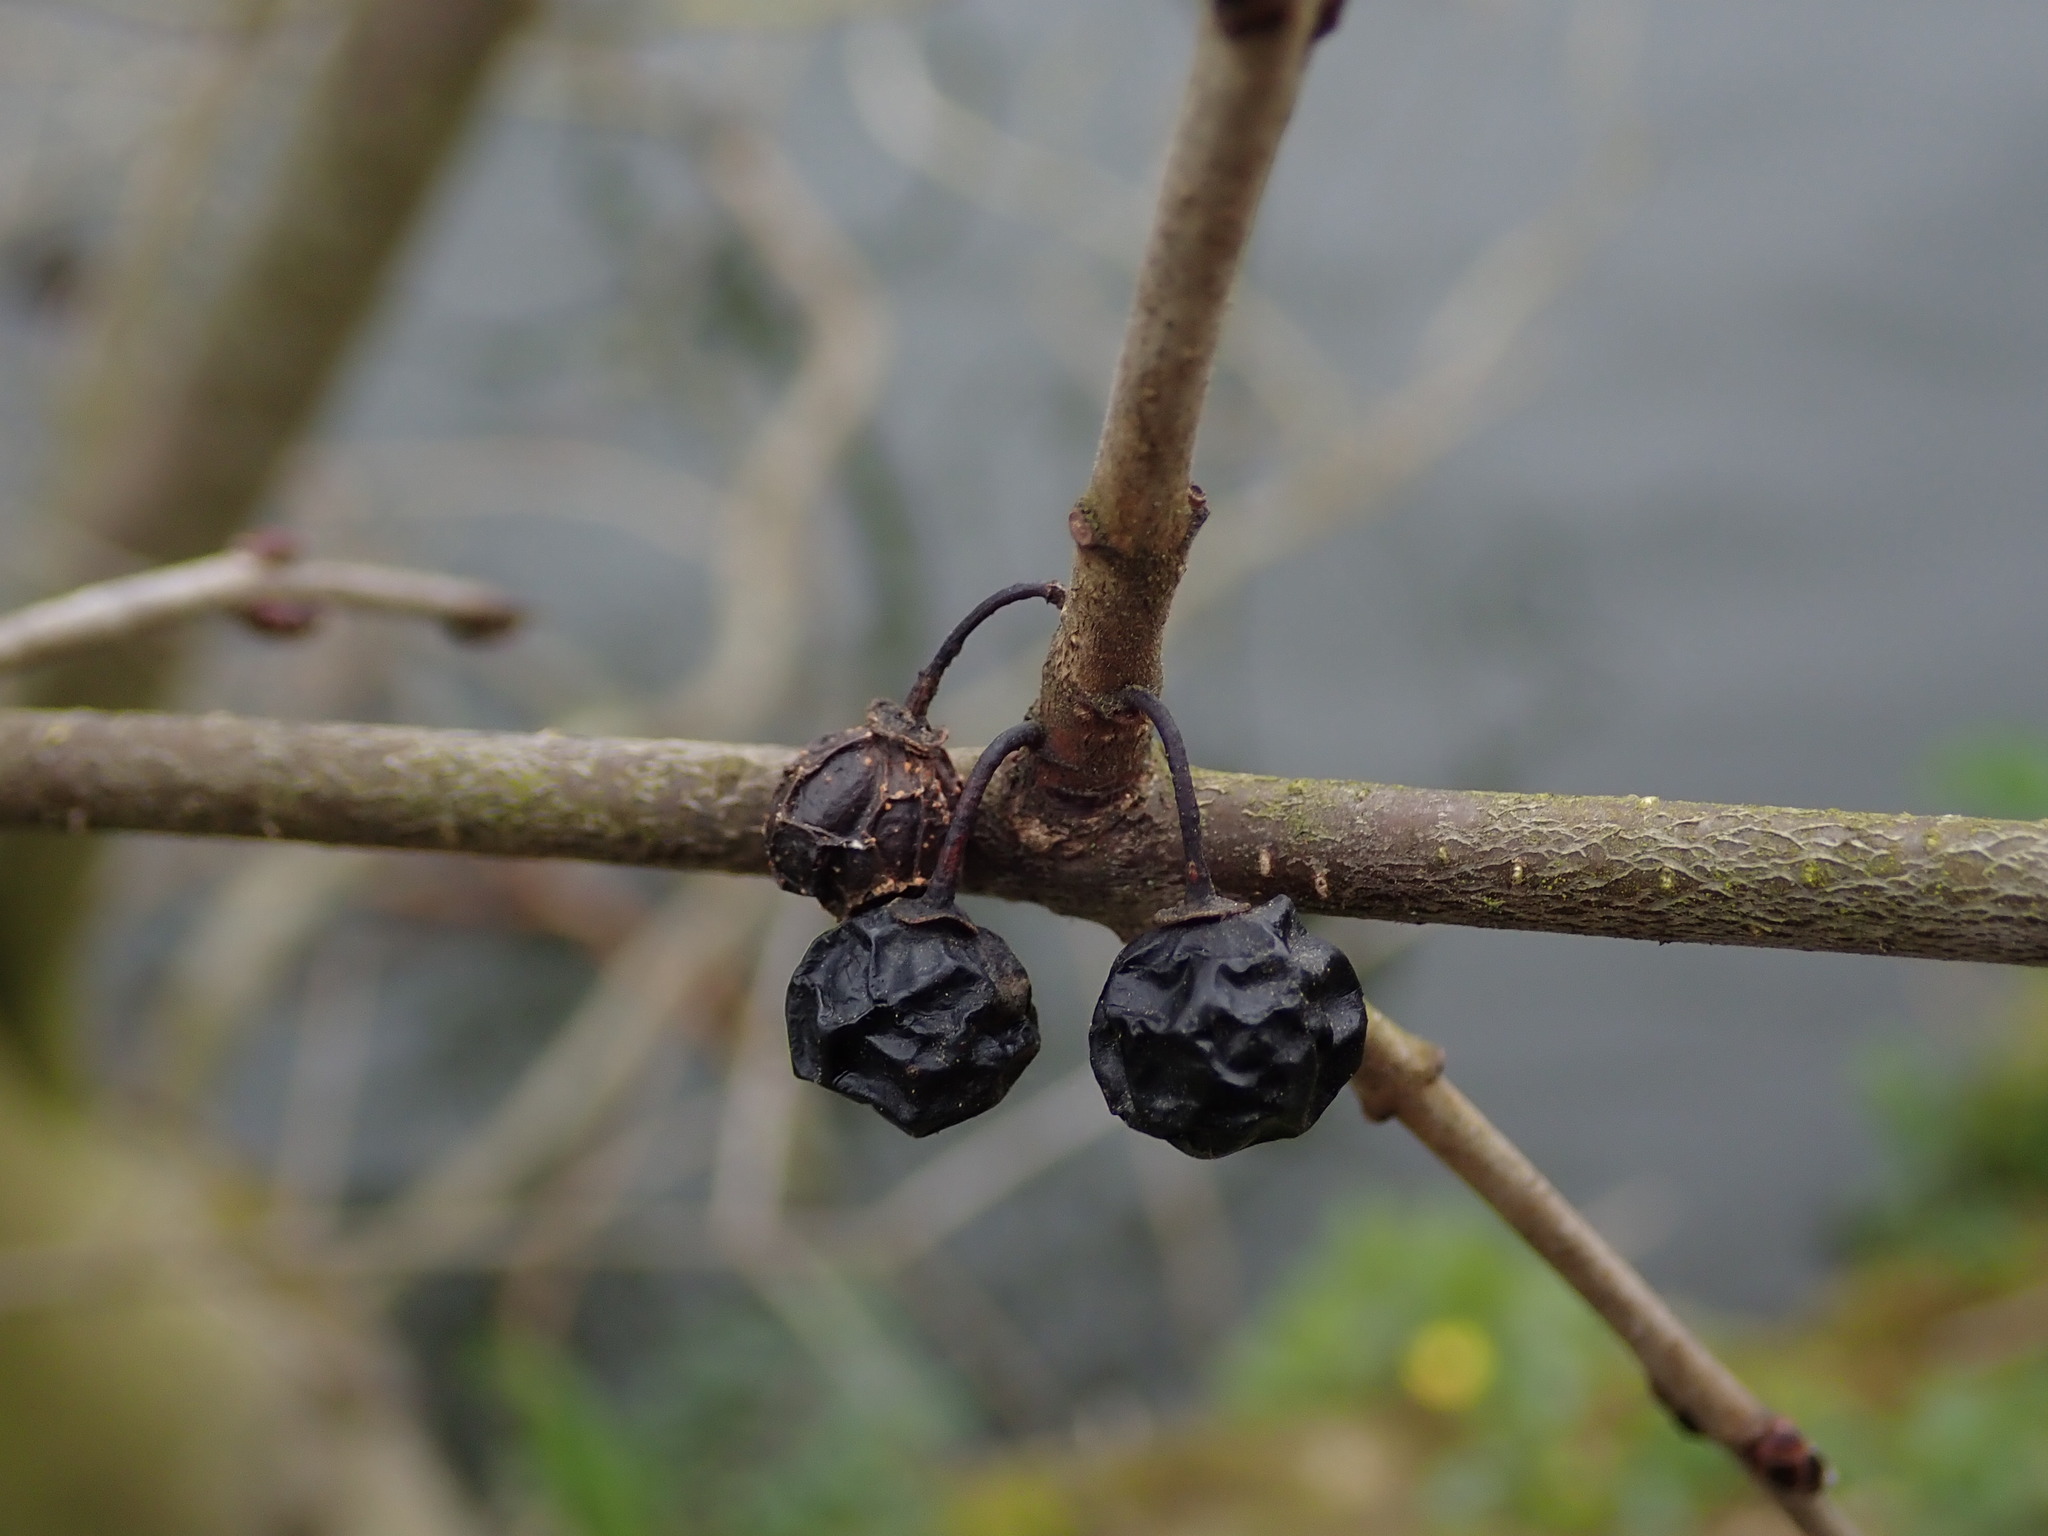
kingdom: Plantae
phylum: Tracheophyta
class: Magnoliopsida
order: Rosales
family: Rhamnaceae
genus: Rhamnus
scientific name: Rhamnus cathartica
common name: Common buckthorn
